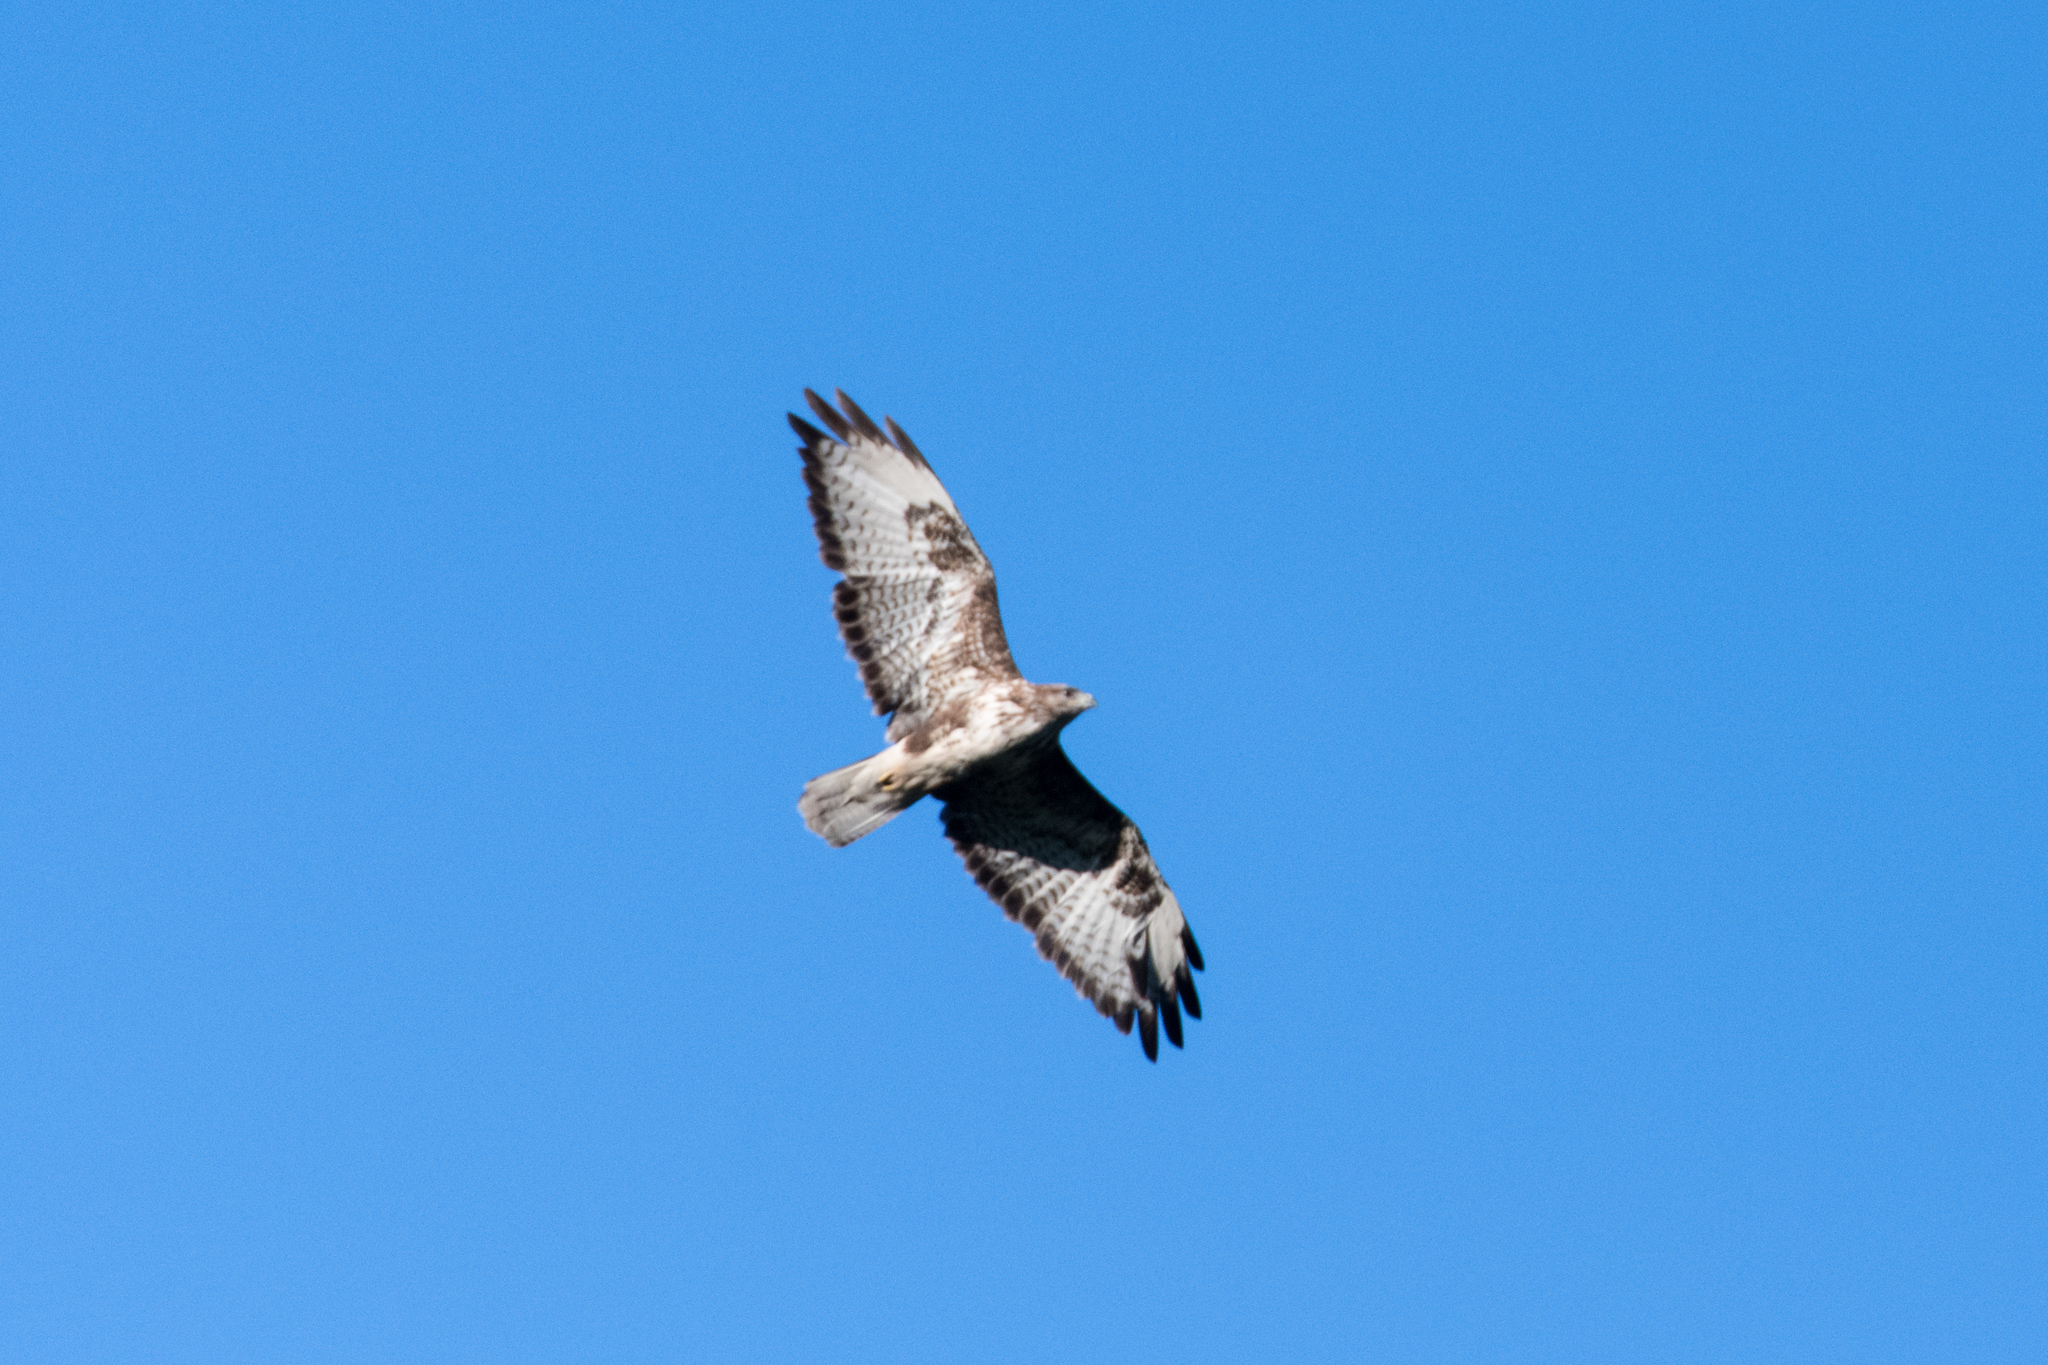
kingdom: Animalia
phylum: Chordata
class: Aves
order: Accipitriformes
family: Accipitridae
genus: Buteo
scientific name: Buteo buteo
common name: Common buzzard
